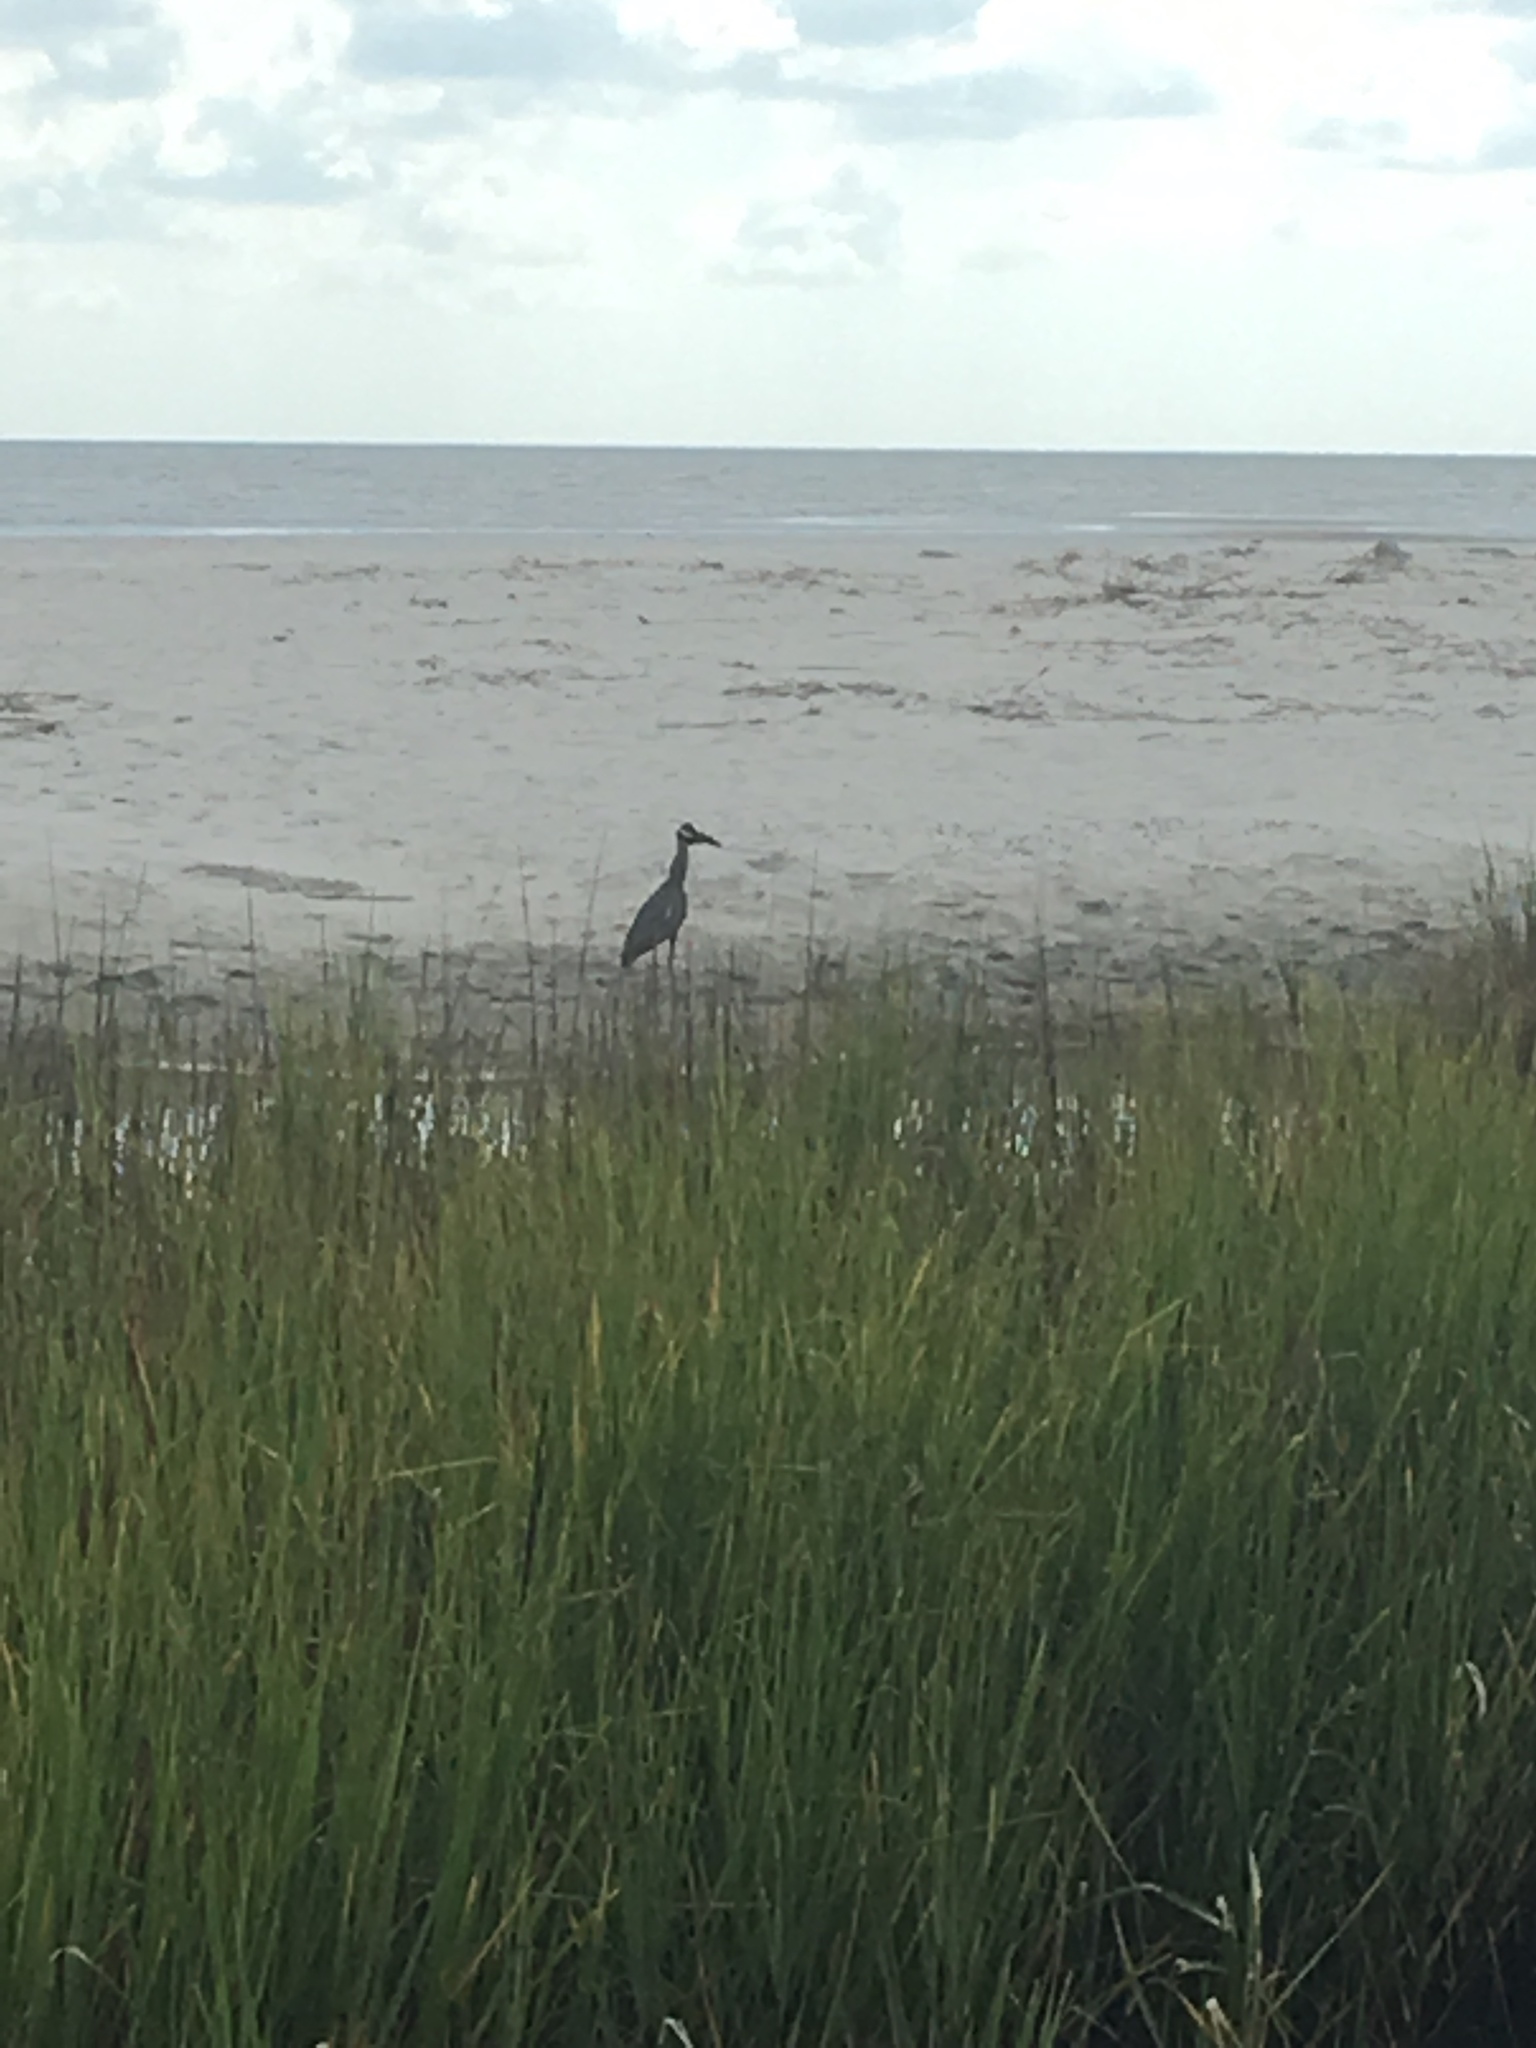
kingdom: Animalia
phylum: Chordata
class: Aves
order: Pelecaniformes
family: Ardeidae
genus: Nyctanassa
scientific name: Nyctanassa violacea
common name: Yellow-crowned night heron
